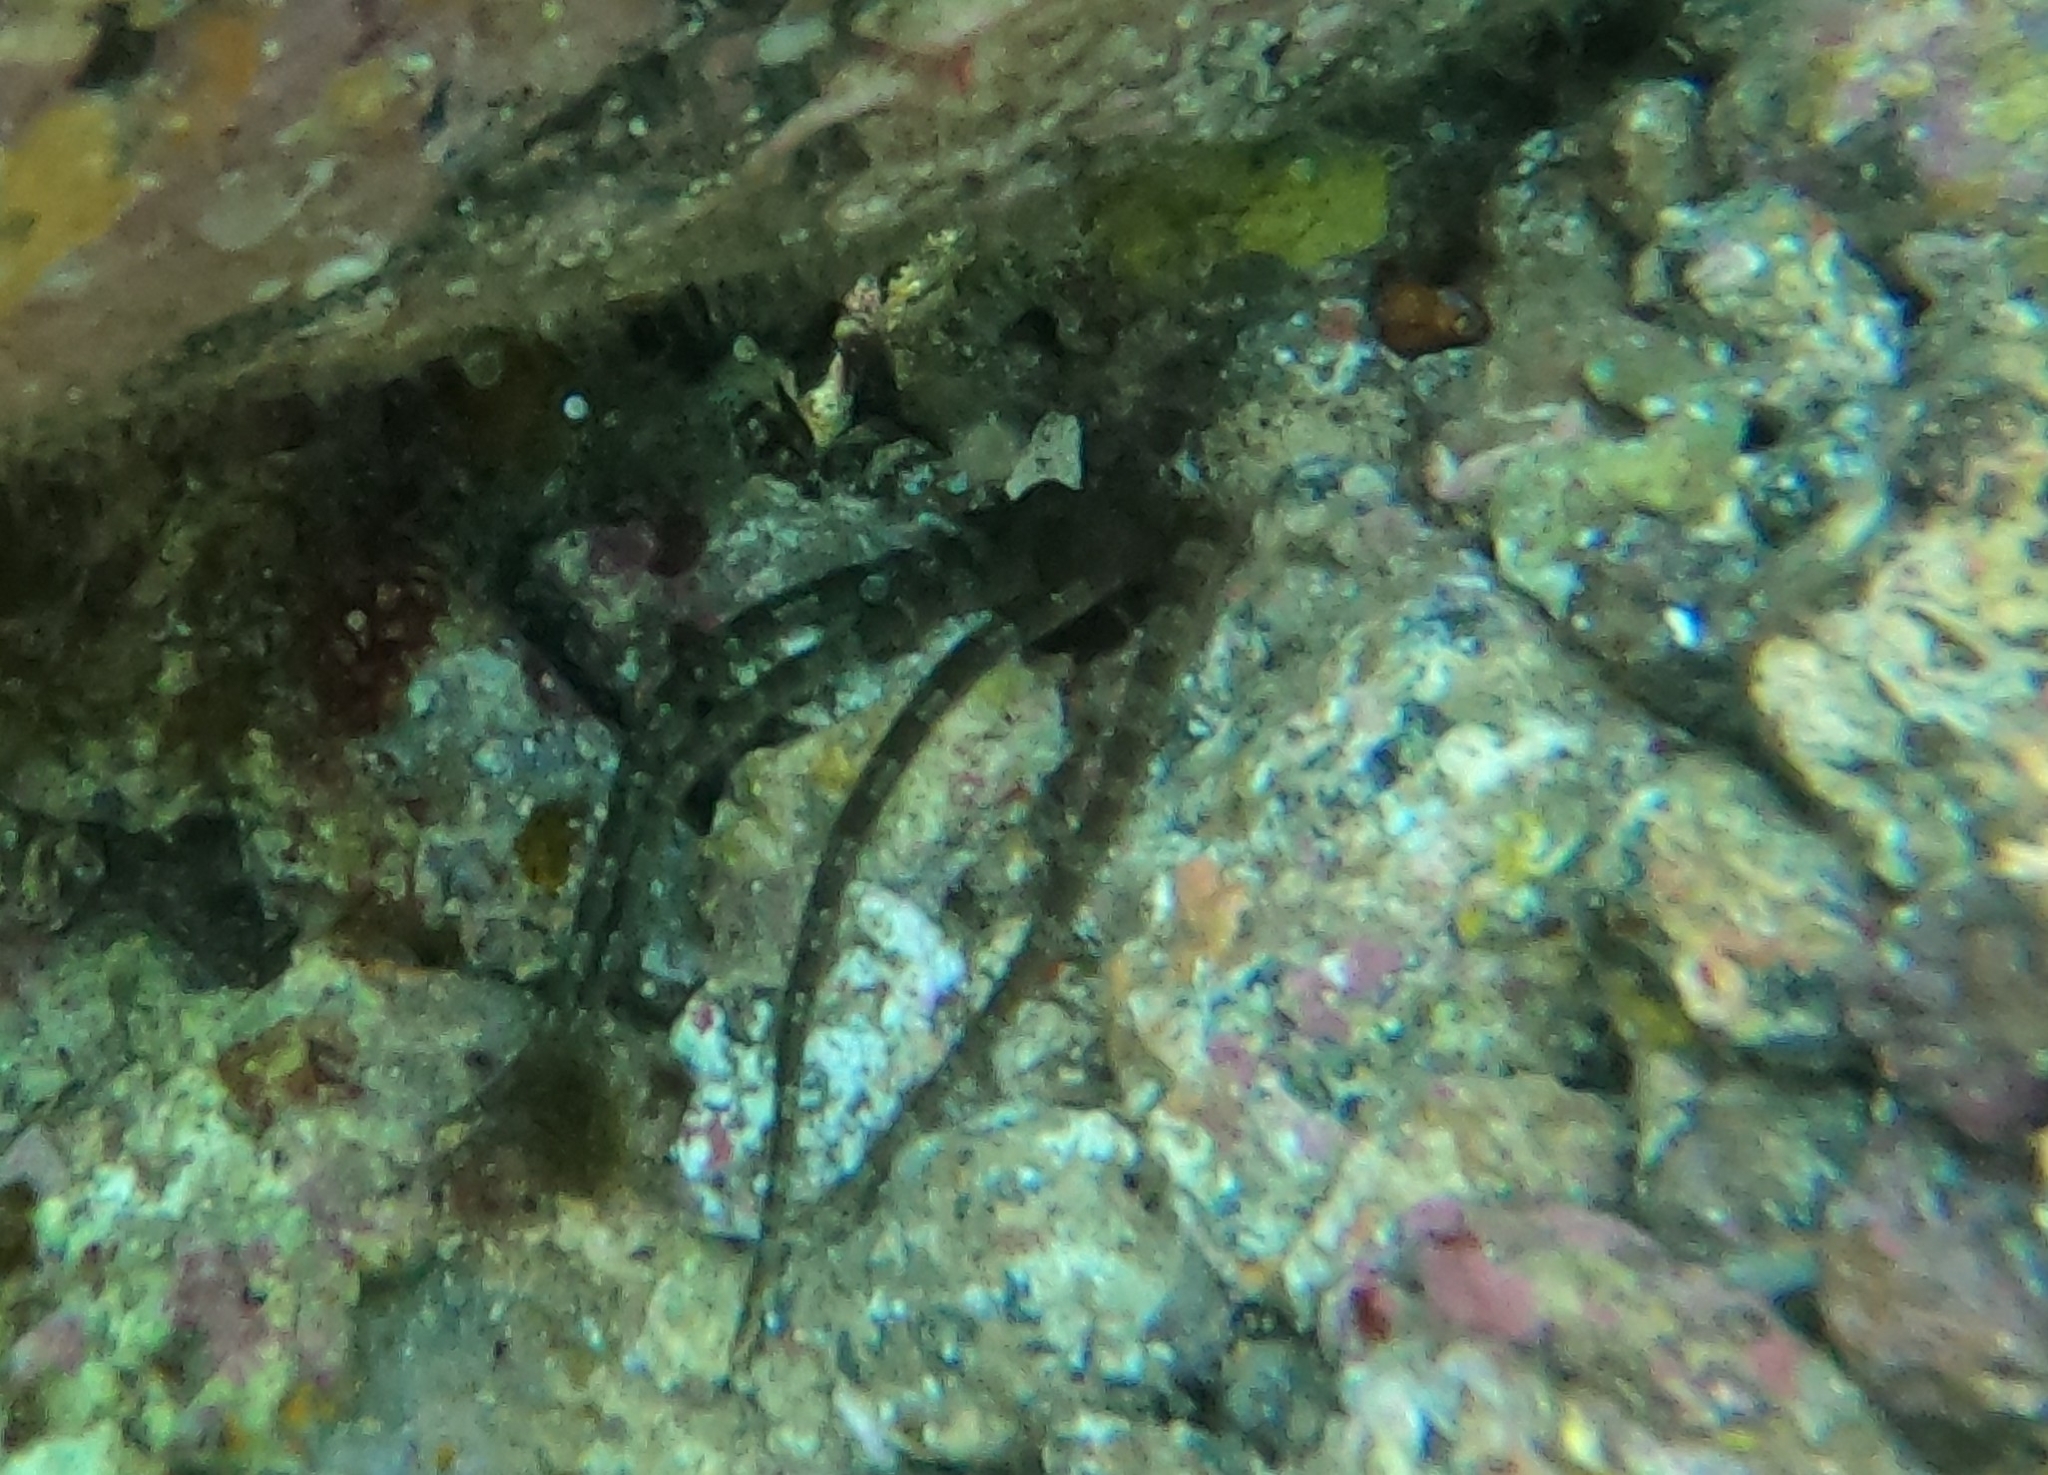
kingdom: Animalia
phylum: Echinodermata
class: Ophiuroidea
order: Ophiacanthida
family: Ophiodermatidae
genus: Ophioderma
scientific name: Ophioderma longicaudum
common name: Smooth brittle-star
